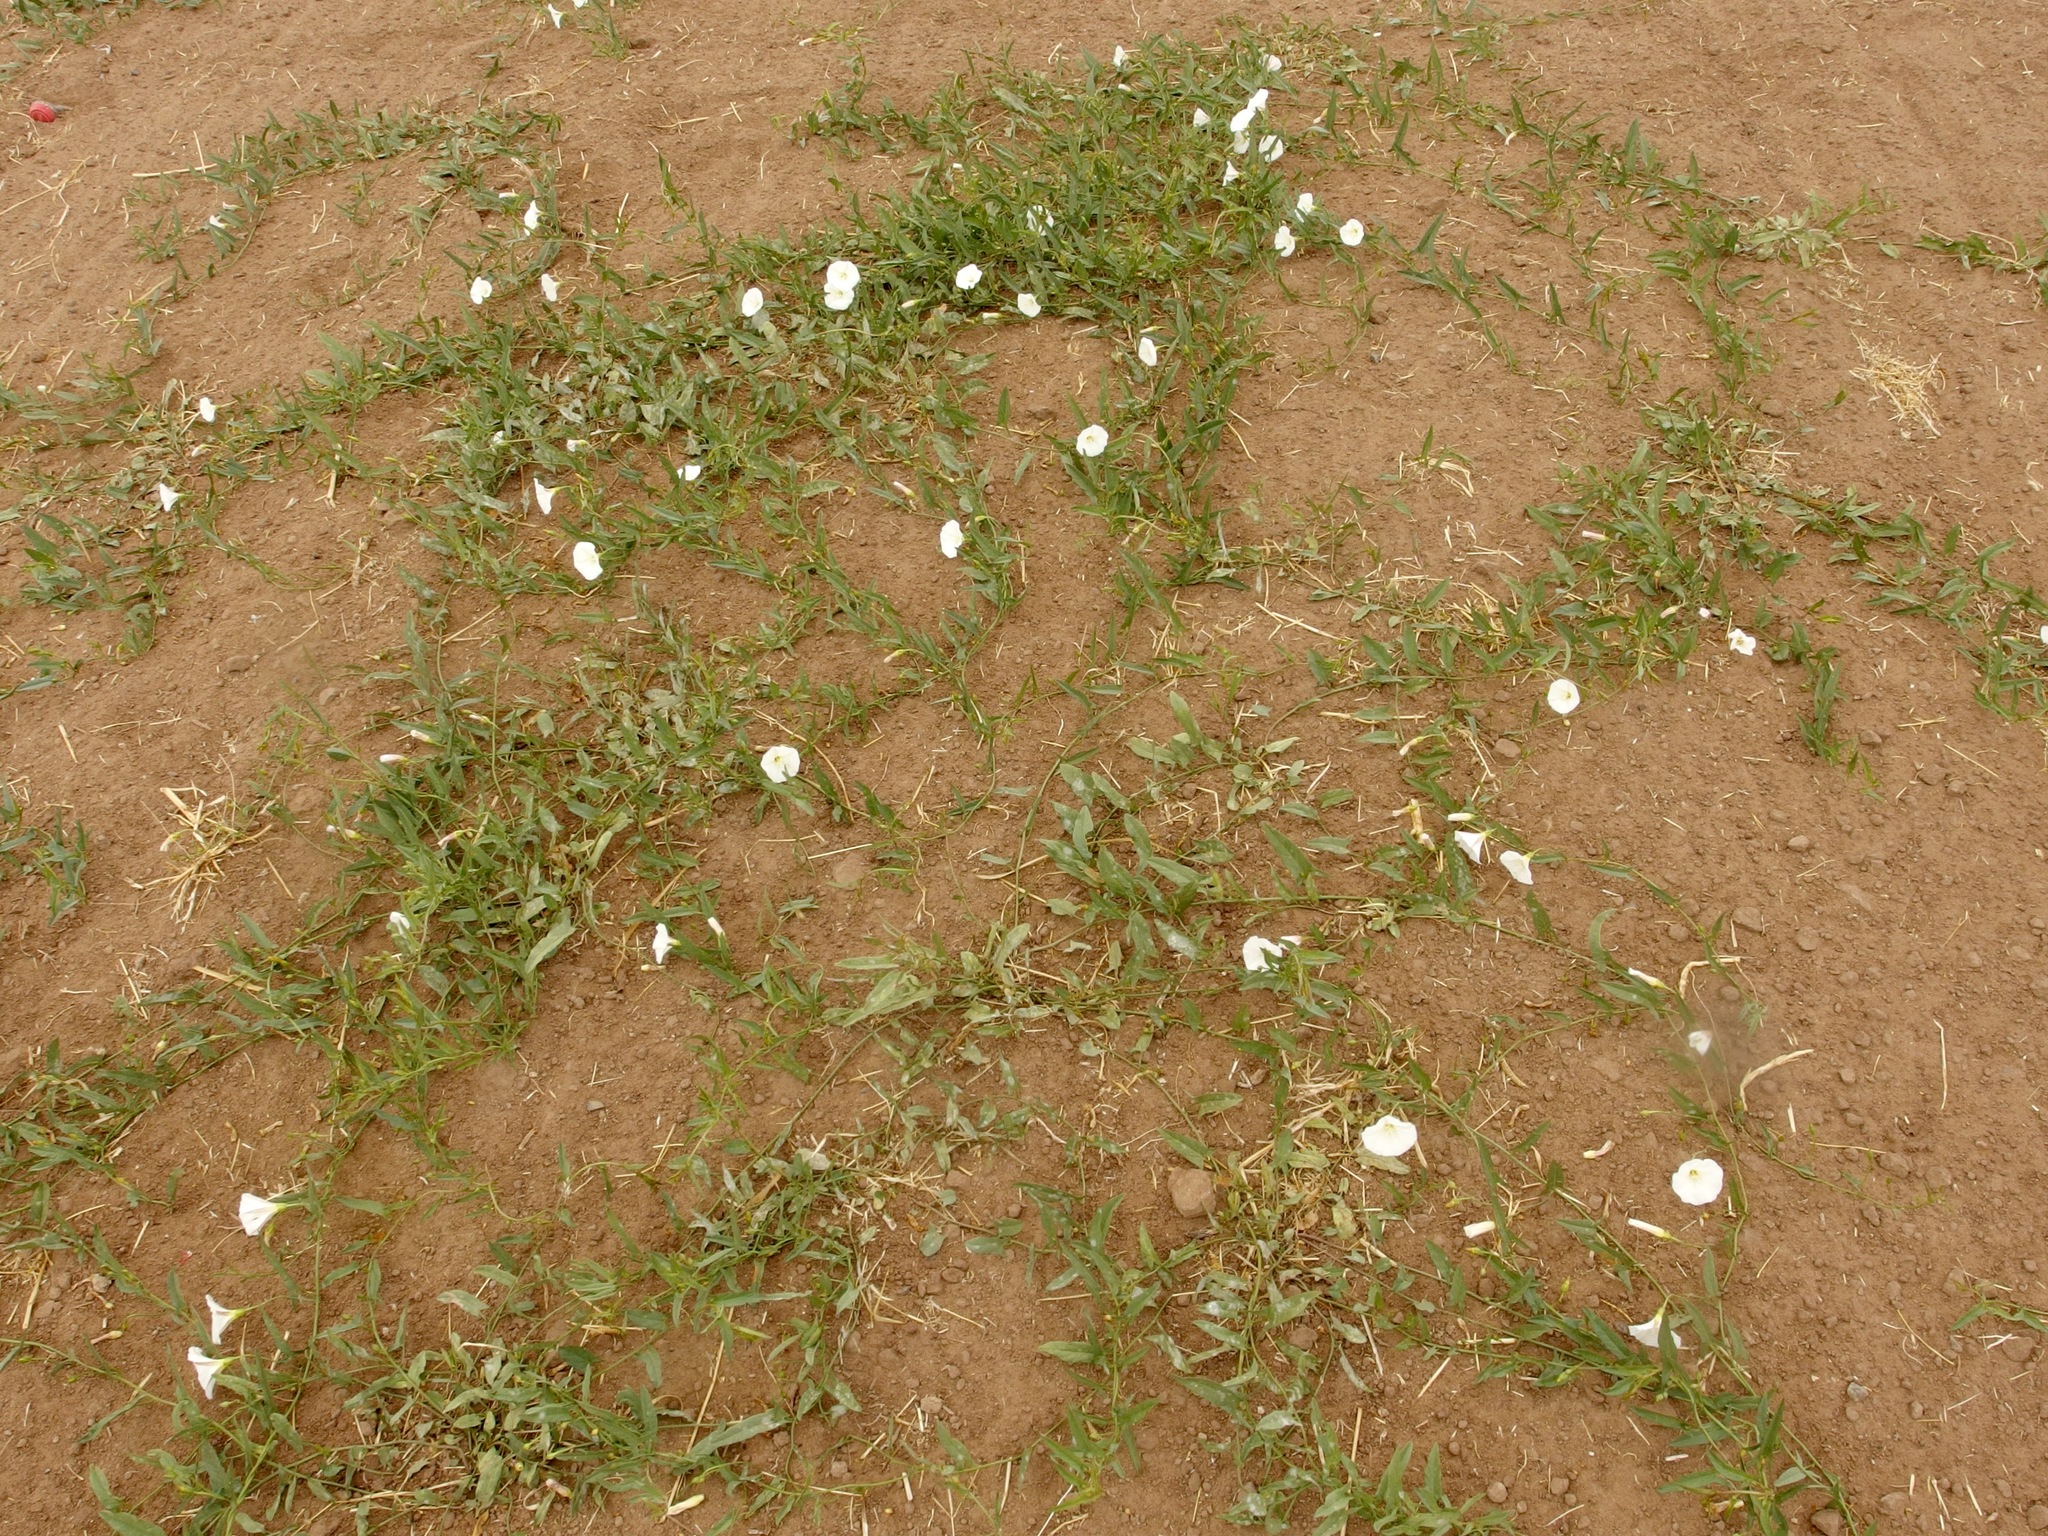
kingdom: Plantae
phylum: Tracheophyta
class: Magnoliopsida
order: Solanales
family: Convolvulaceae
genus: Convolvulus
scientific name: Convolvulus arvensis
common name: Field bindweed
